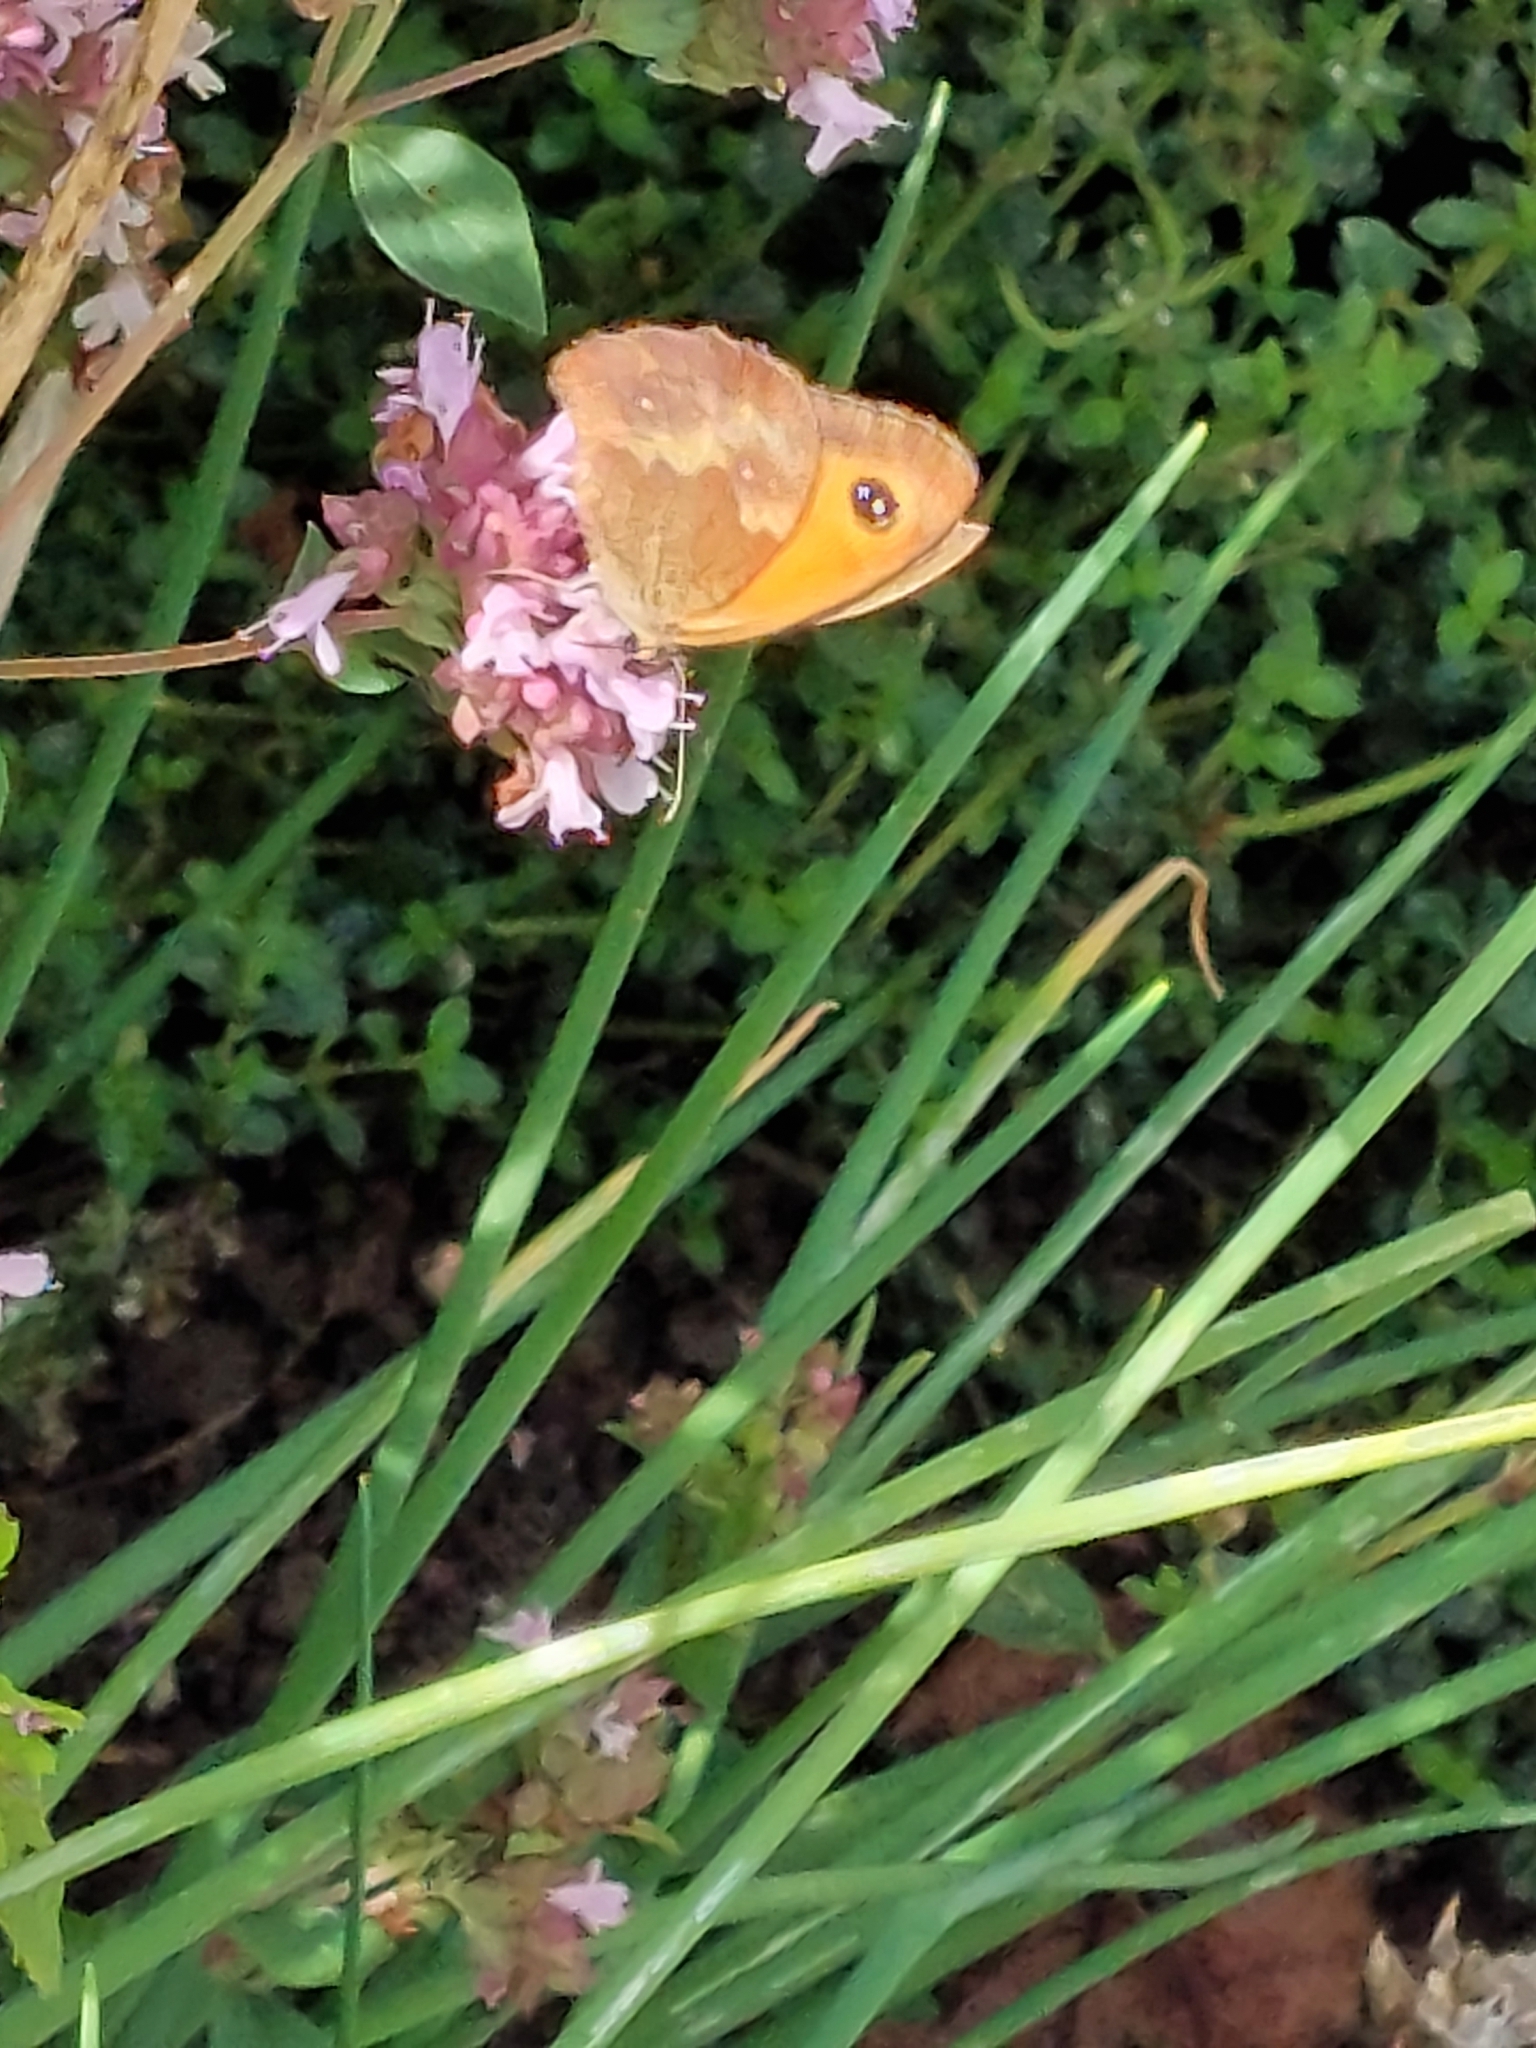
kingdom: Animalia
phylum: Arthropoda
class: Insecta
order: Lepidoptera
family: Nymphalidae
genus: Pyronia
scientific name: Pyronia tithonus
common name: Gatekeeper
